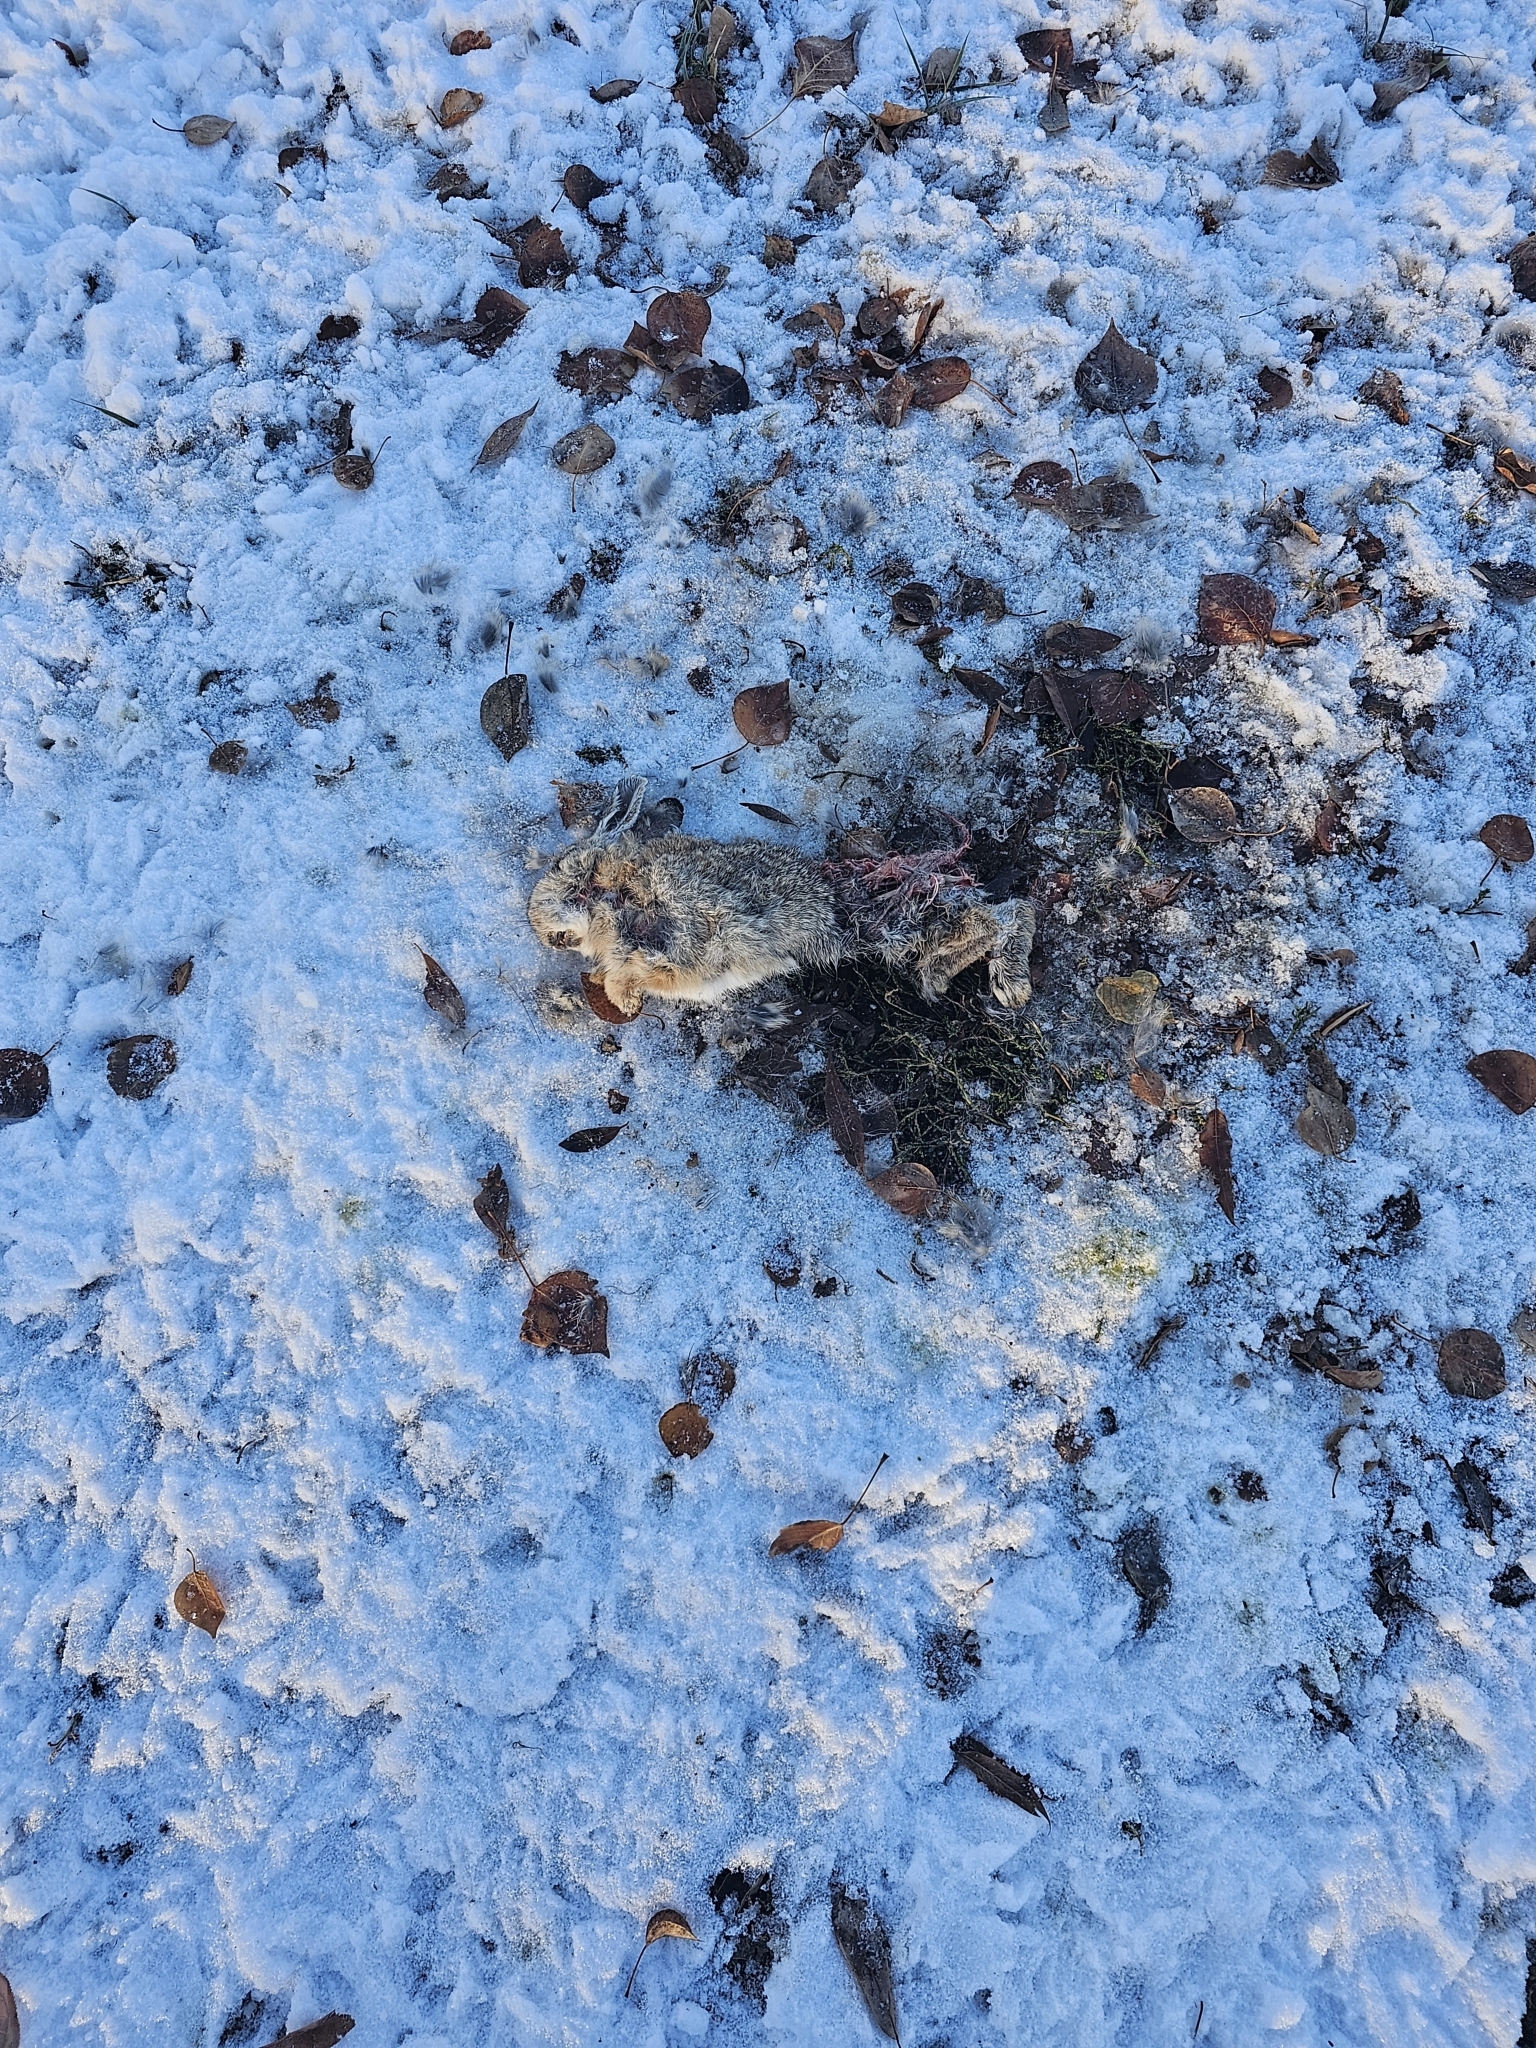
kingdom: Animalia
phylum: Chordata
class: Mammalia
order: Lagomorpha
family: Leporidae
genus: Sylvilagus
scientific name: Sylvilagus nuttallii
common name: Mountain cottontail
